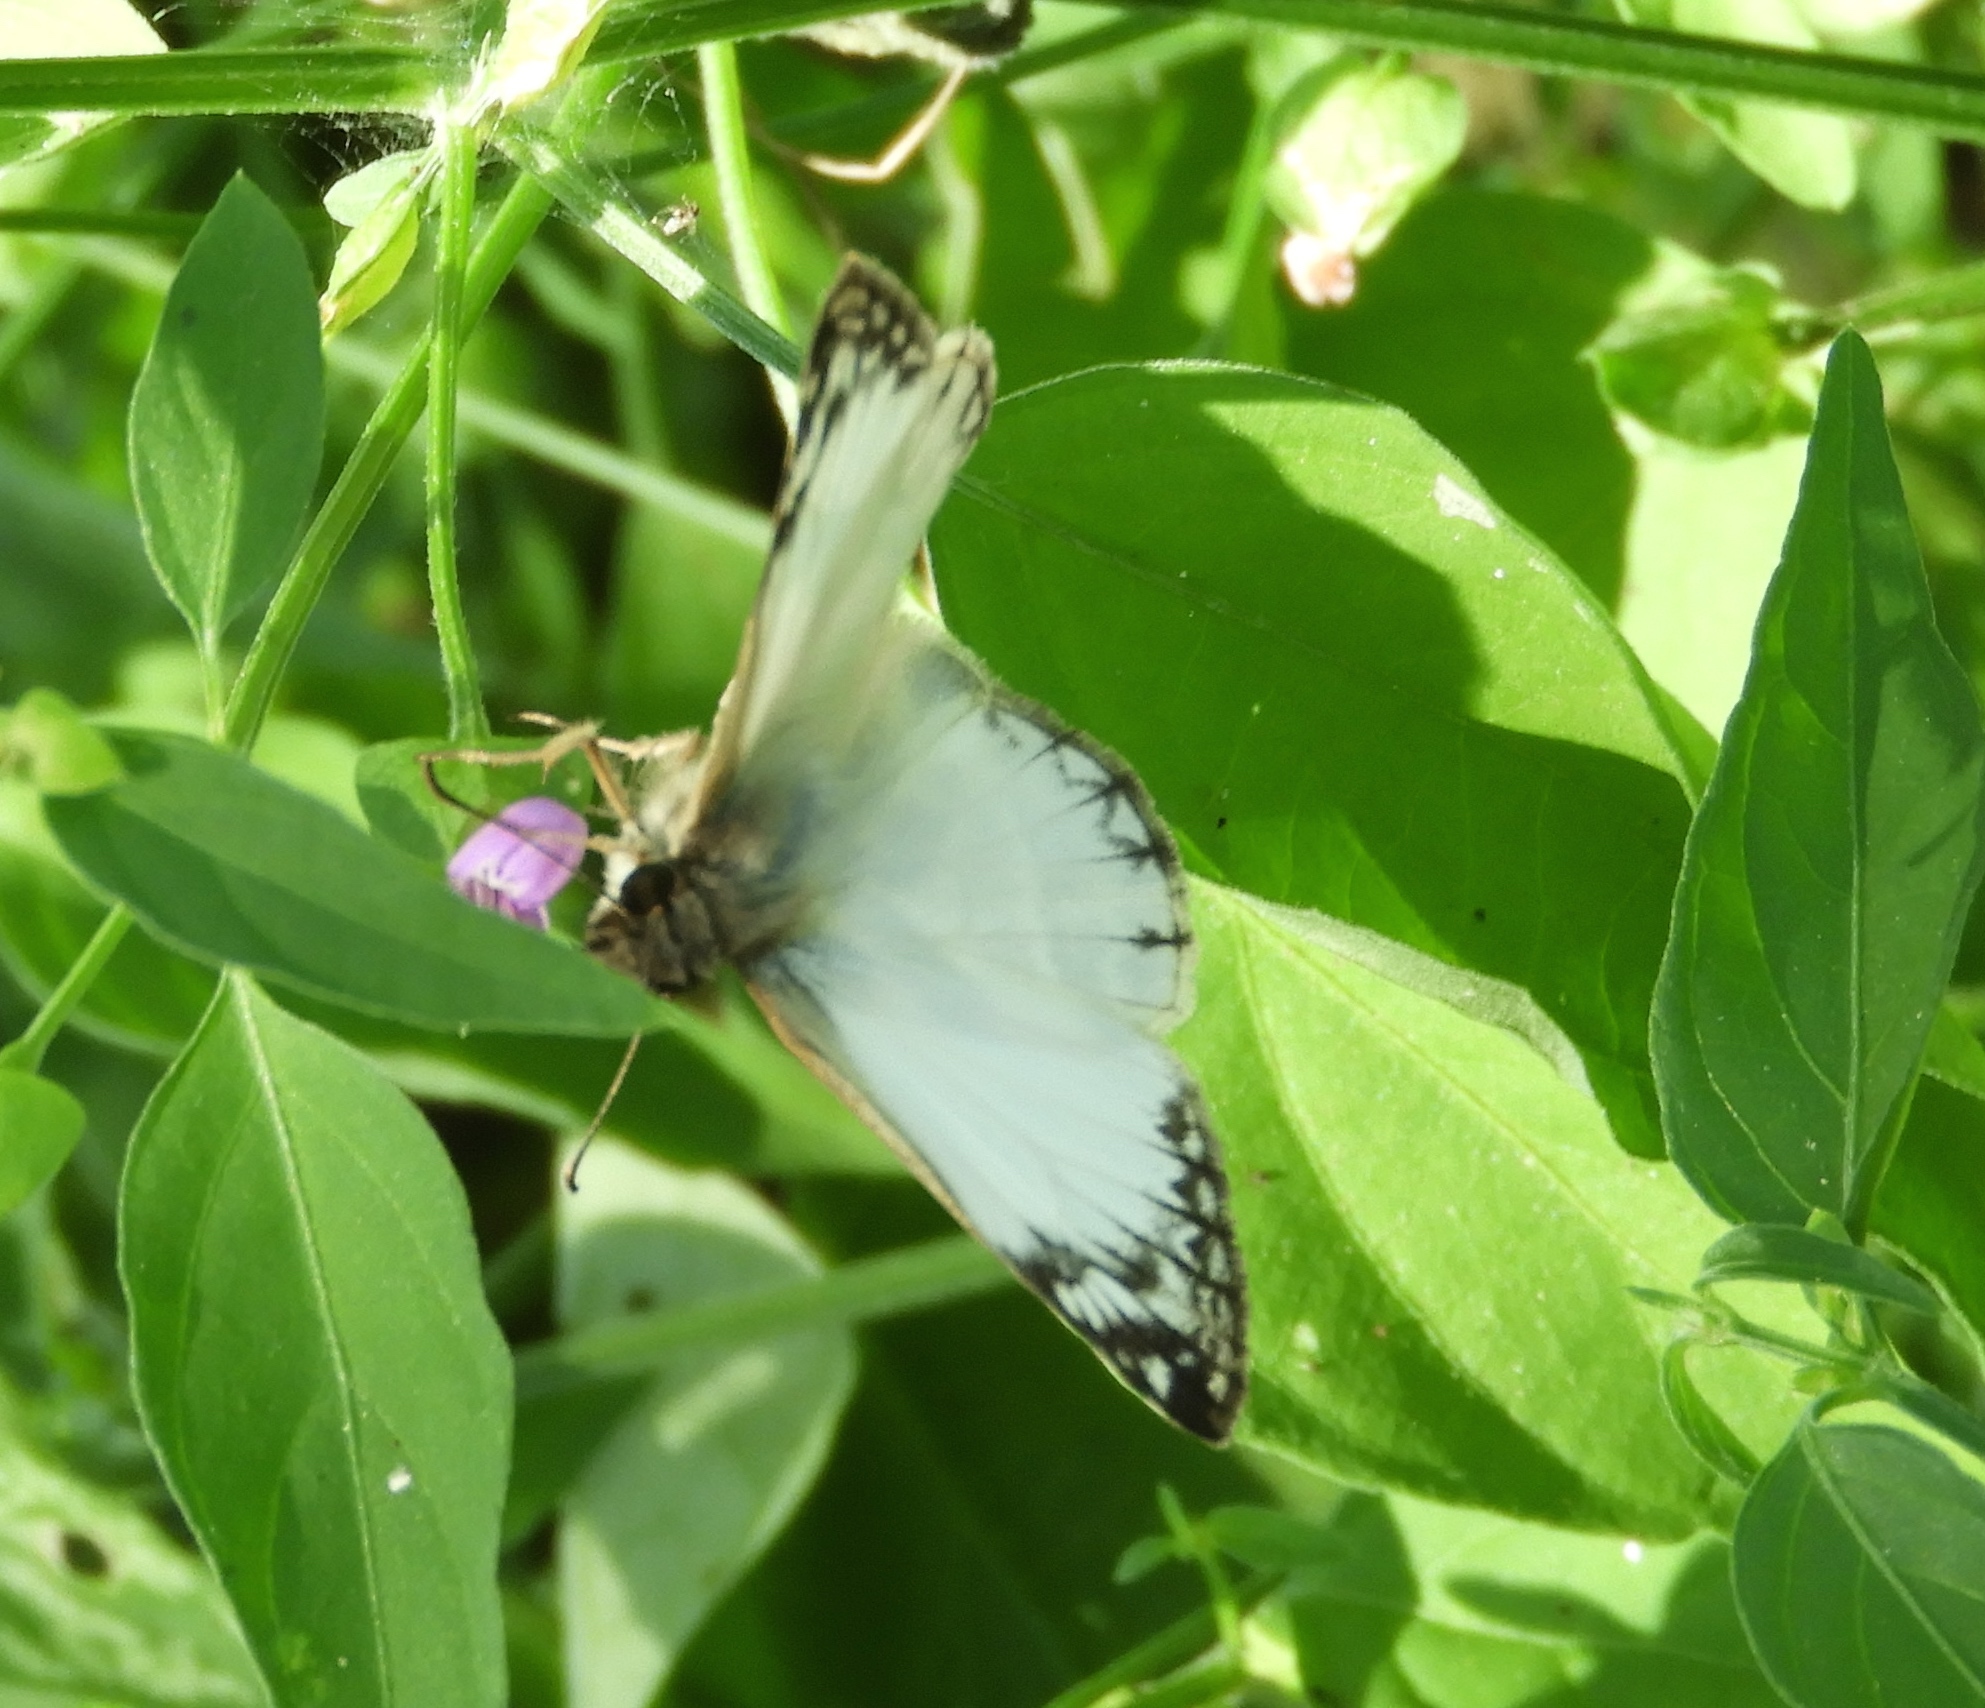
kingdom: Animalia
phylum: Arthropoda
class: Insecta
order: Lepidoptera
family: Hesperiidae
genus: Heliopetes
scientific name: Heliopetes laviana
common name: Laviana white-skipper
